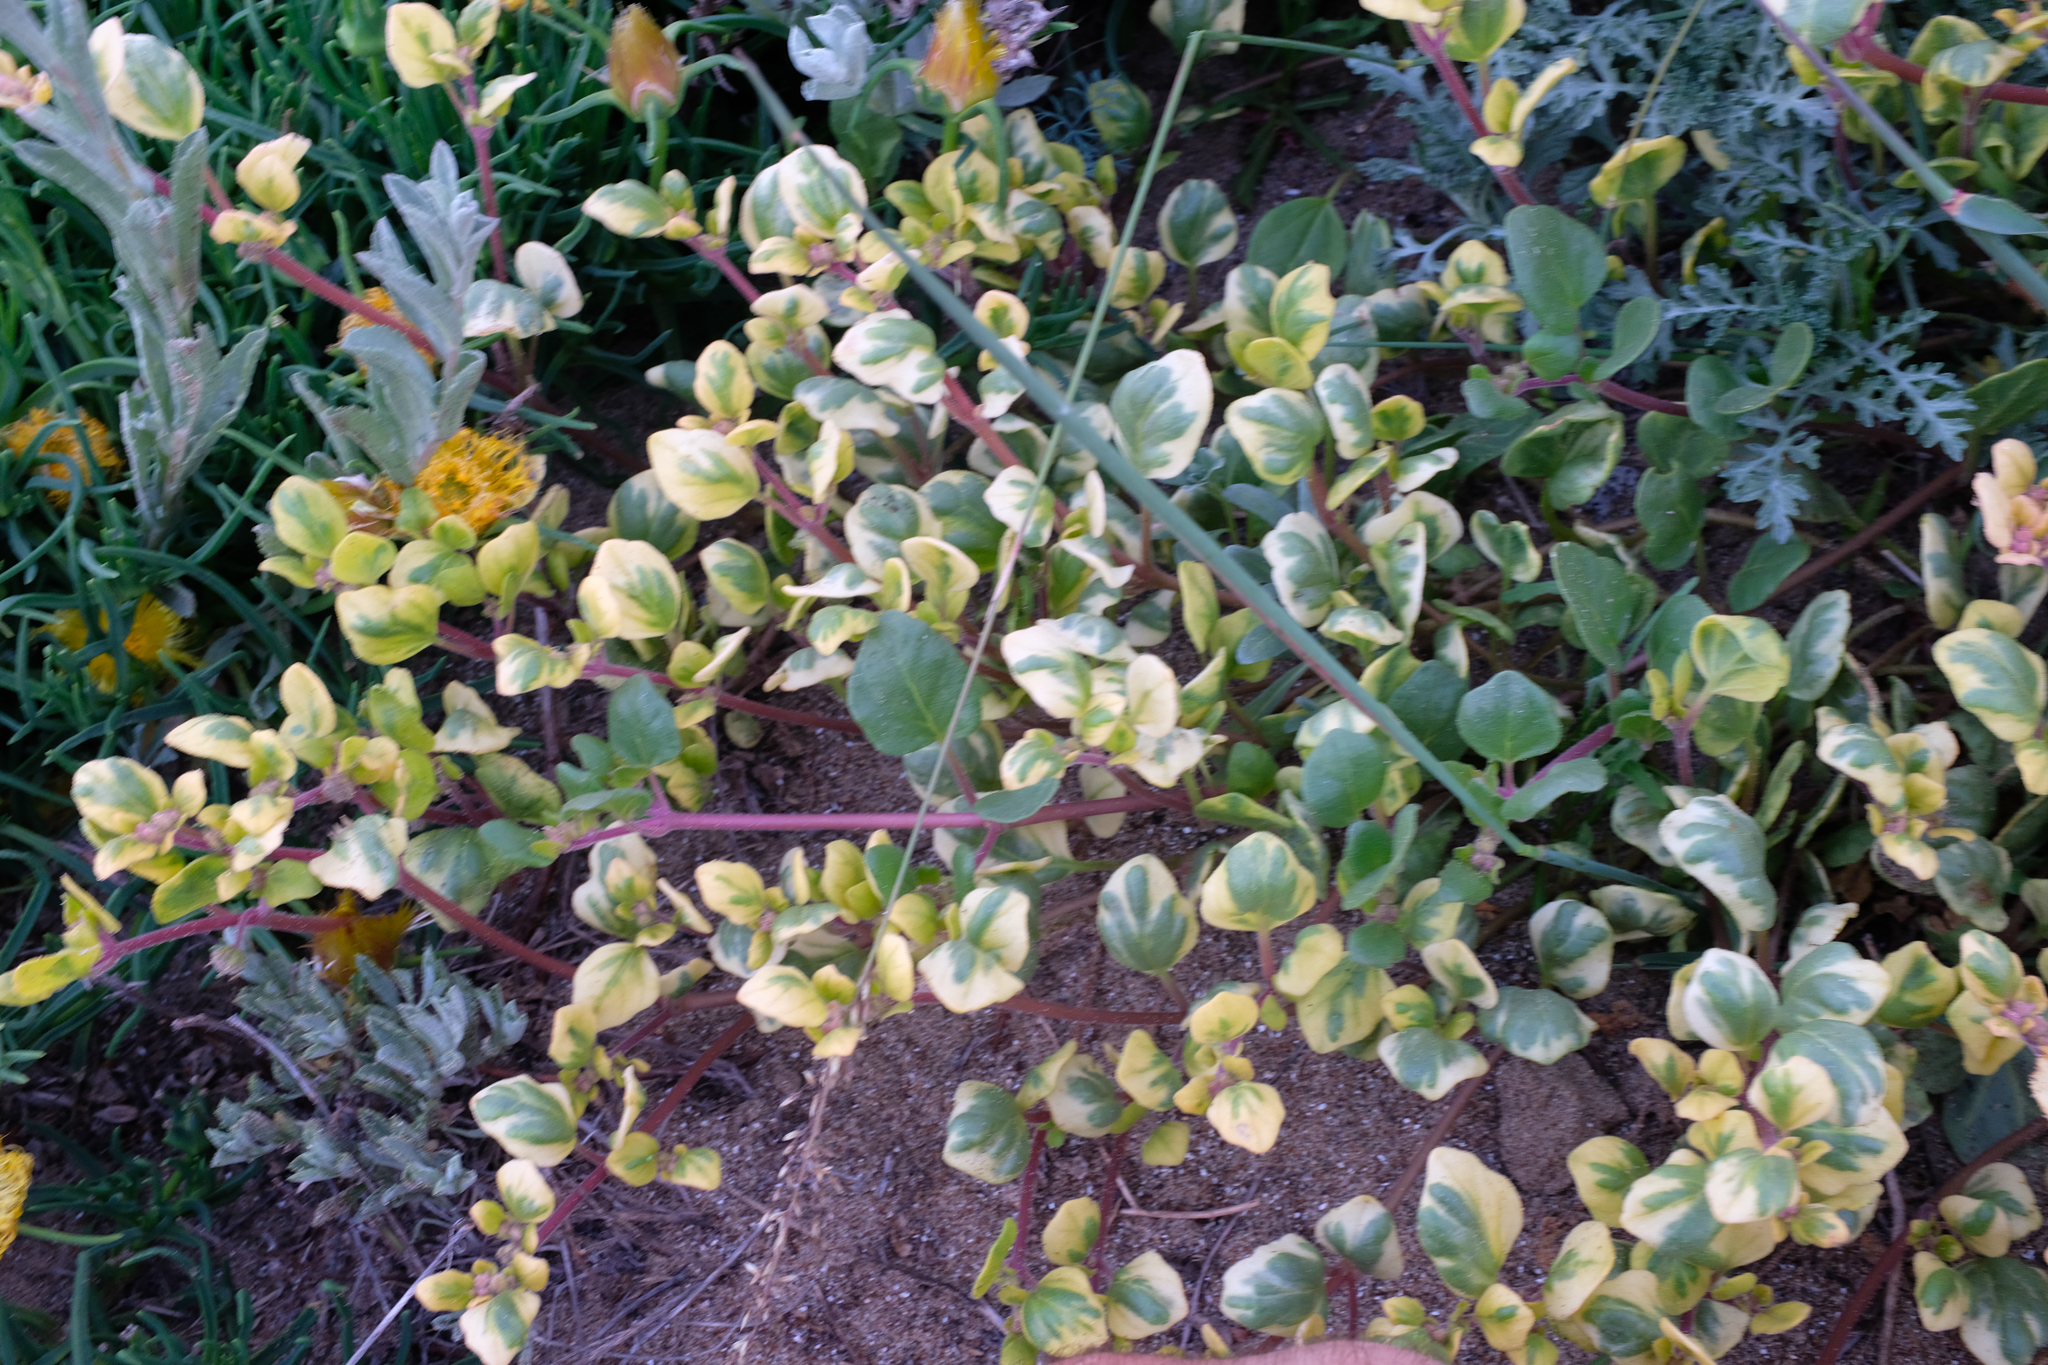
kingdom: Plantae
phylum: Tracheophyta
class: Magnoliopsida
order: Caryophyllales
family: Nyctaginaceae
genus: Abronia
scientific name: Abronia umbellata
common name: Sand-verbena
